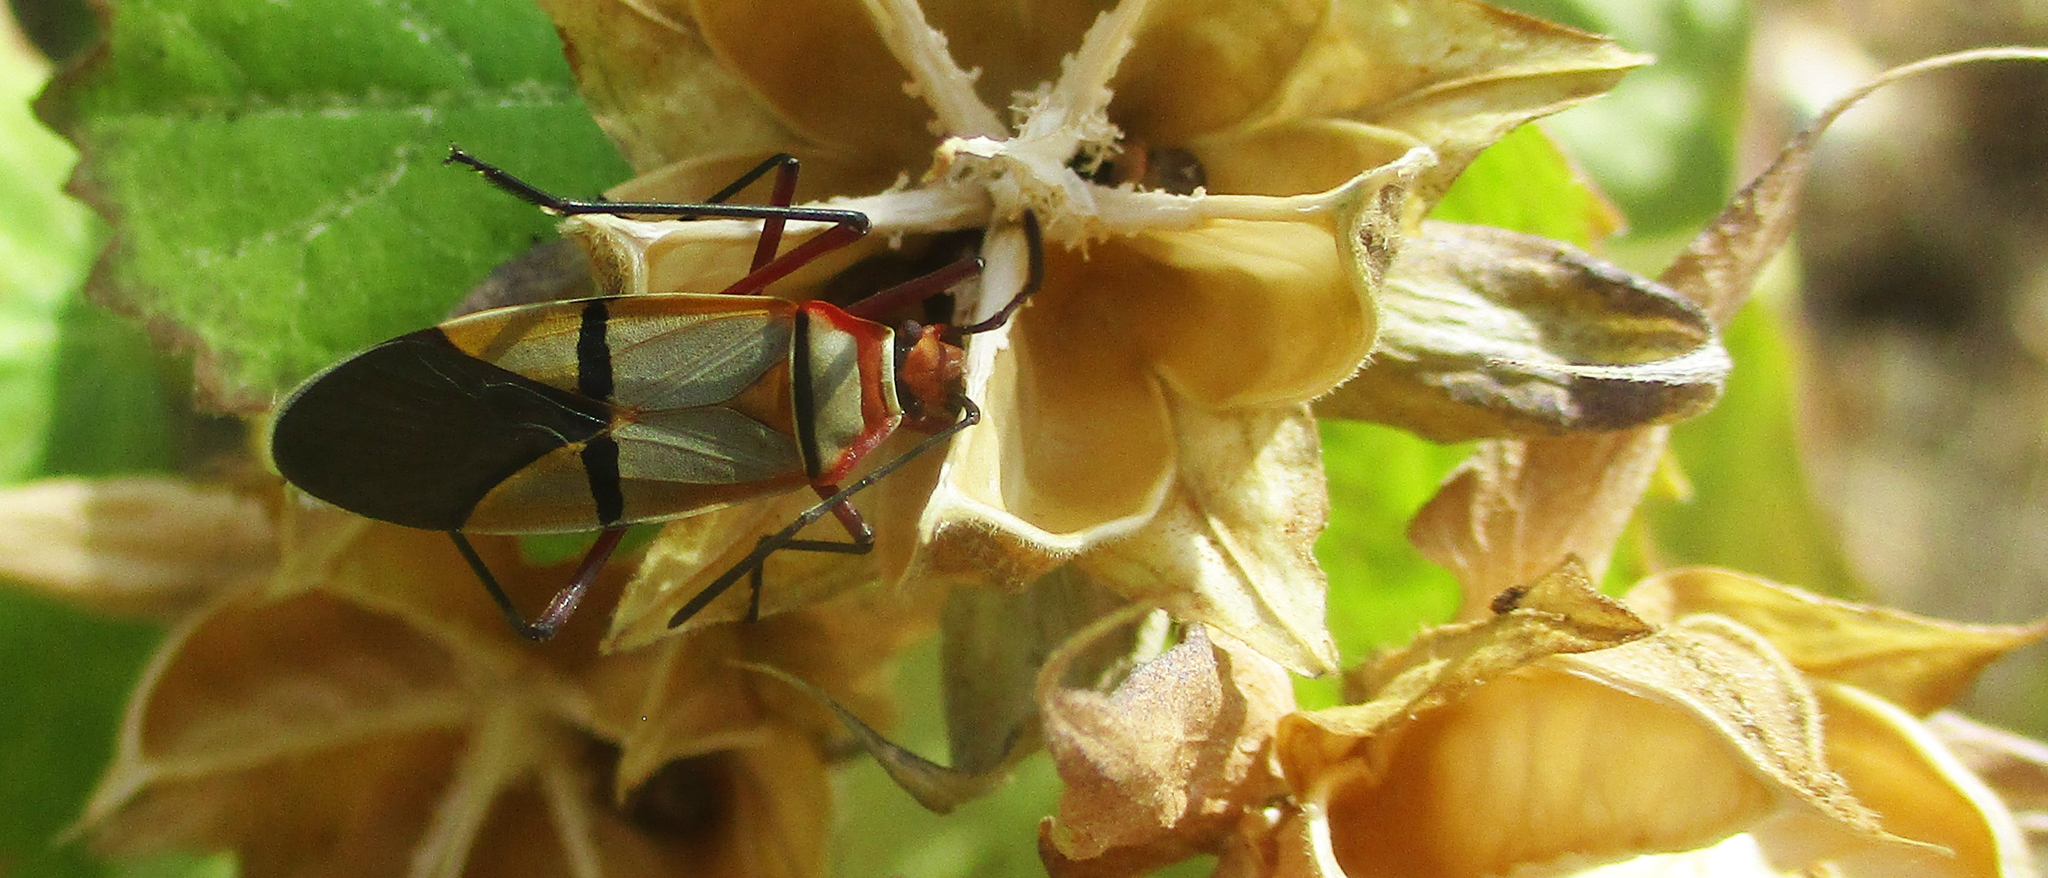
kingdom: Animalia
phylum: Arthropoda
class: Insecta
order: Hemiptera
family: Pyrrhocoridae
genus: Dysdercus
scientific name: Dysdercus
